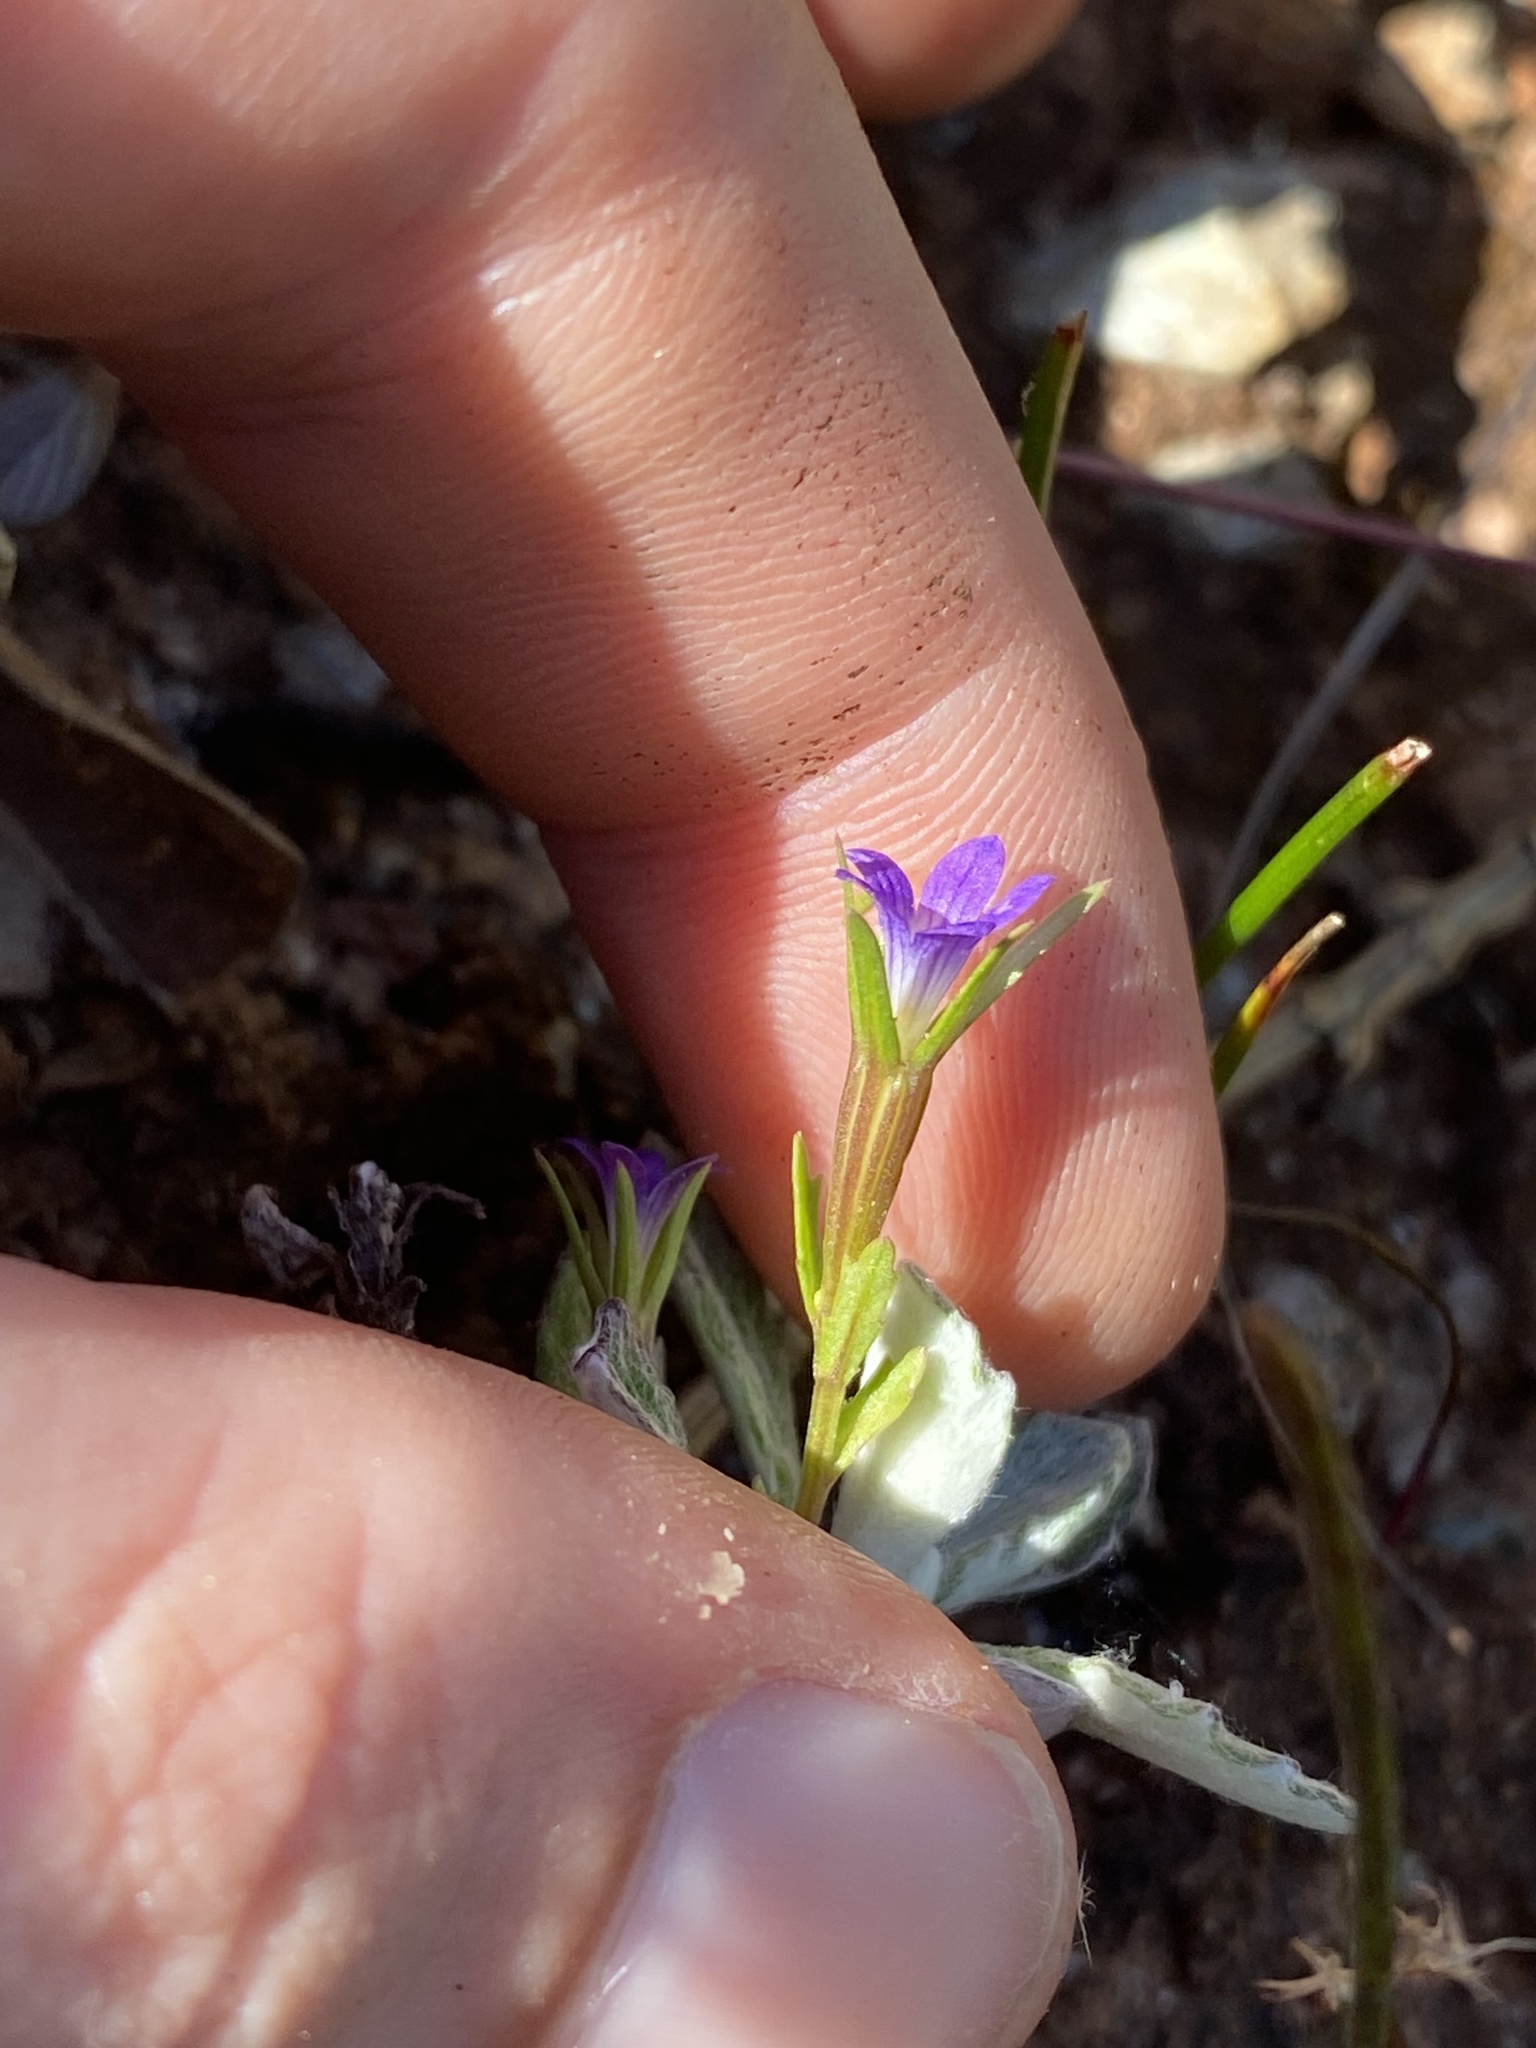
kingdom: Plantae
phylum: Tracheophyta
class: Magnoliopsida
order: Asterales
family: Campanulaceae
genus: Githopsis
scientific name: Githopsis specularioides
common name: Common bluecup
